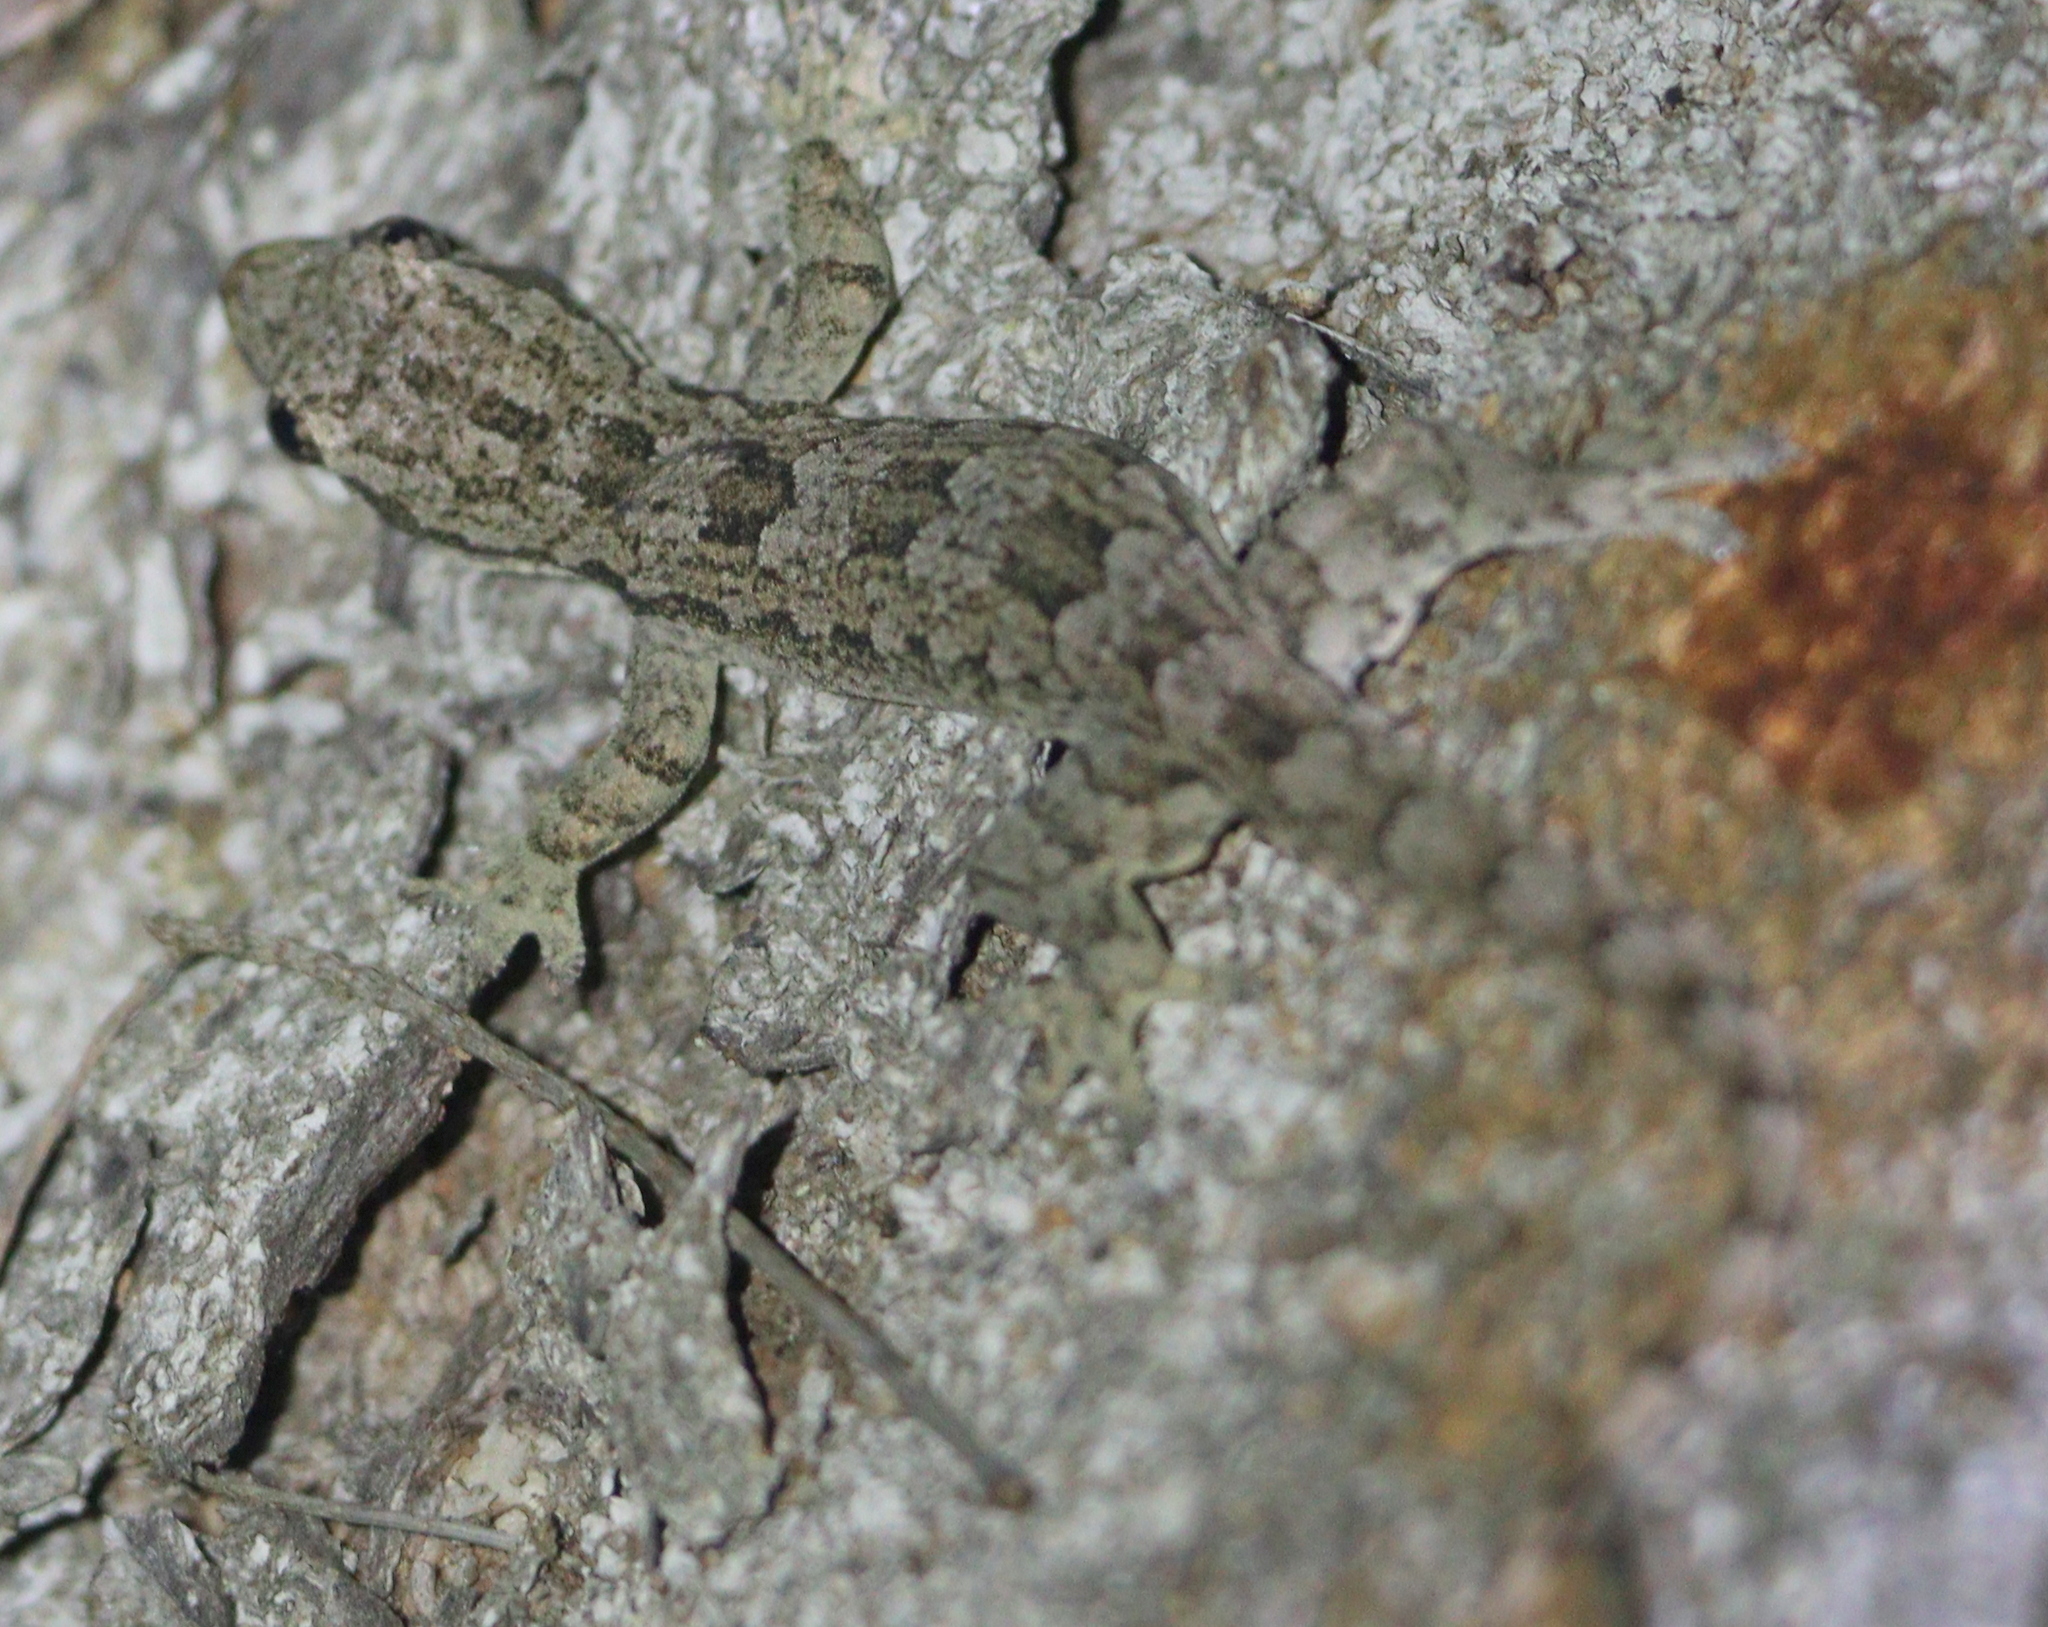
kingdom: Animalia
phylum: Chordata
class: Squamata
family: Gekkonidae
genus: Hemidactylus
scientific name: Hemidactylus platyurus
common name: Flat-tailed house gecko
